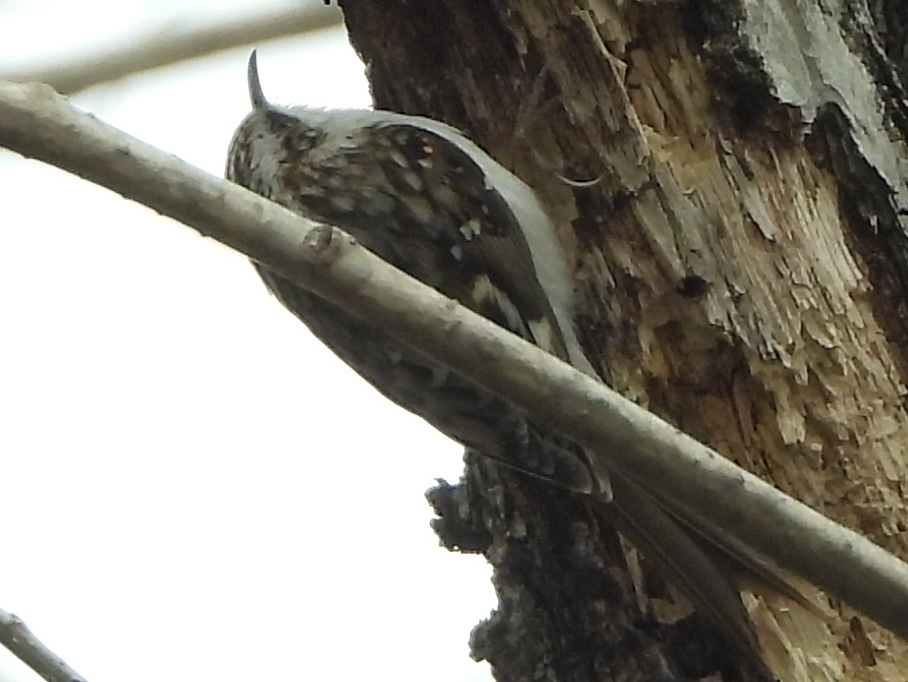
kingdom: Animalia
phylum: Chordata
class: Aves
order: Passeriformes
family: Certhiidae
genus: Certhia
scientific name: Certhia familiaris
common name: Eurasian treecreeper
